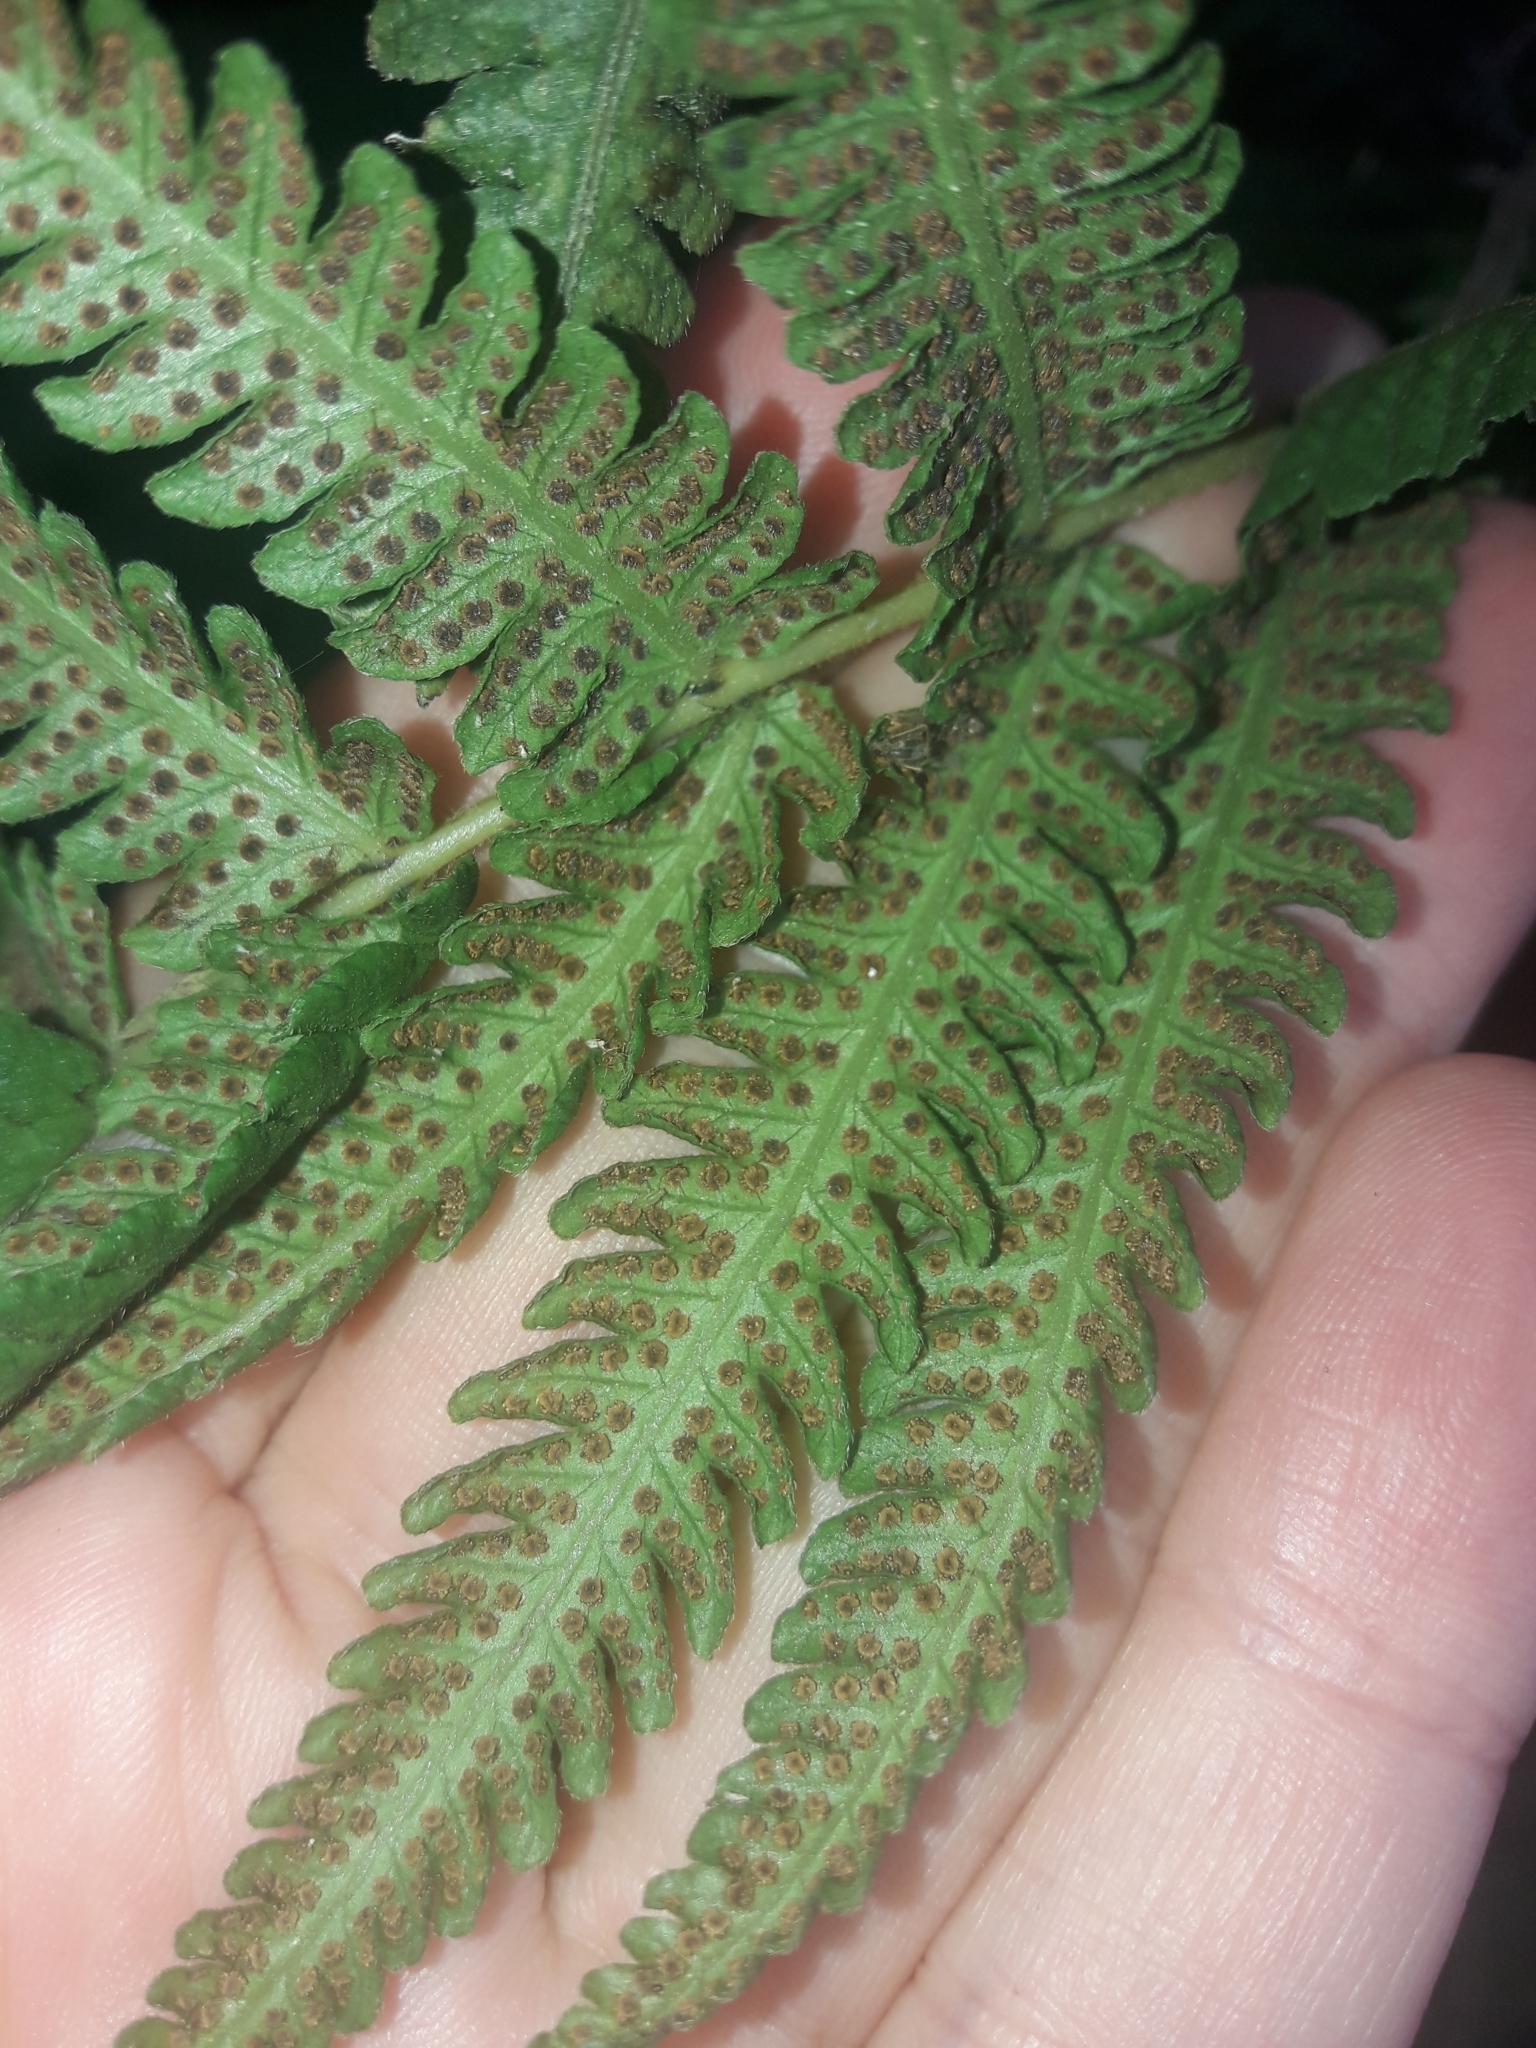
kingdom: Plantae
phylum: Tracheophyta
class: Polypodiopsida
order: Polypodiales
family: Thelypteridaceae
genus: Christella
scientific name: Christella dentata
